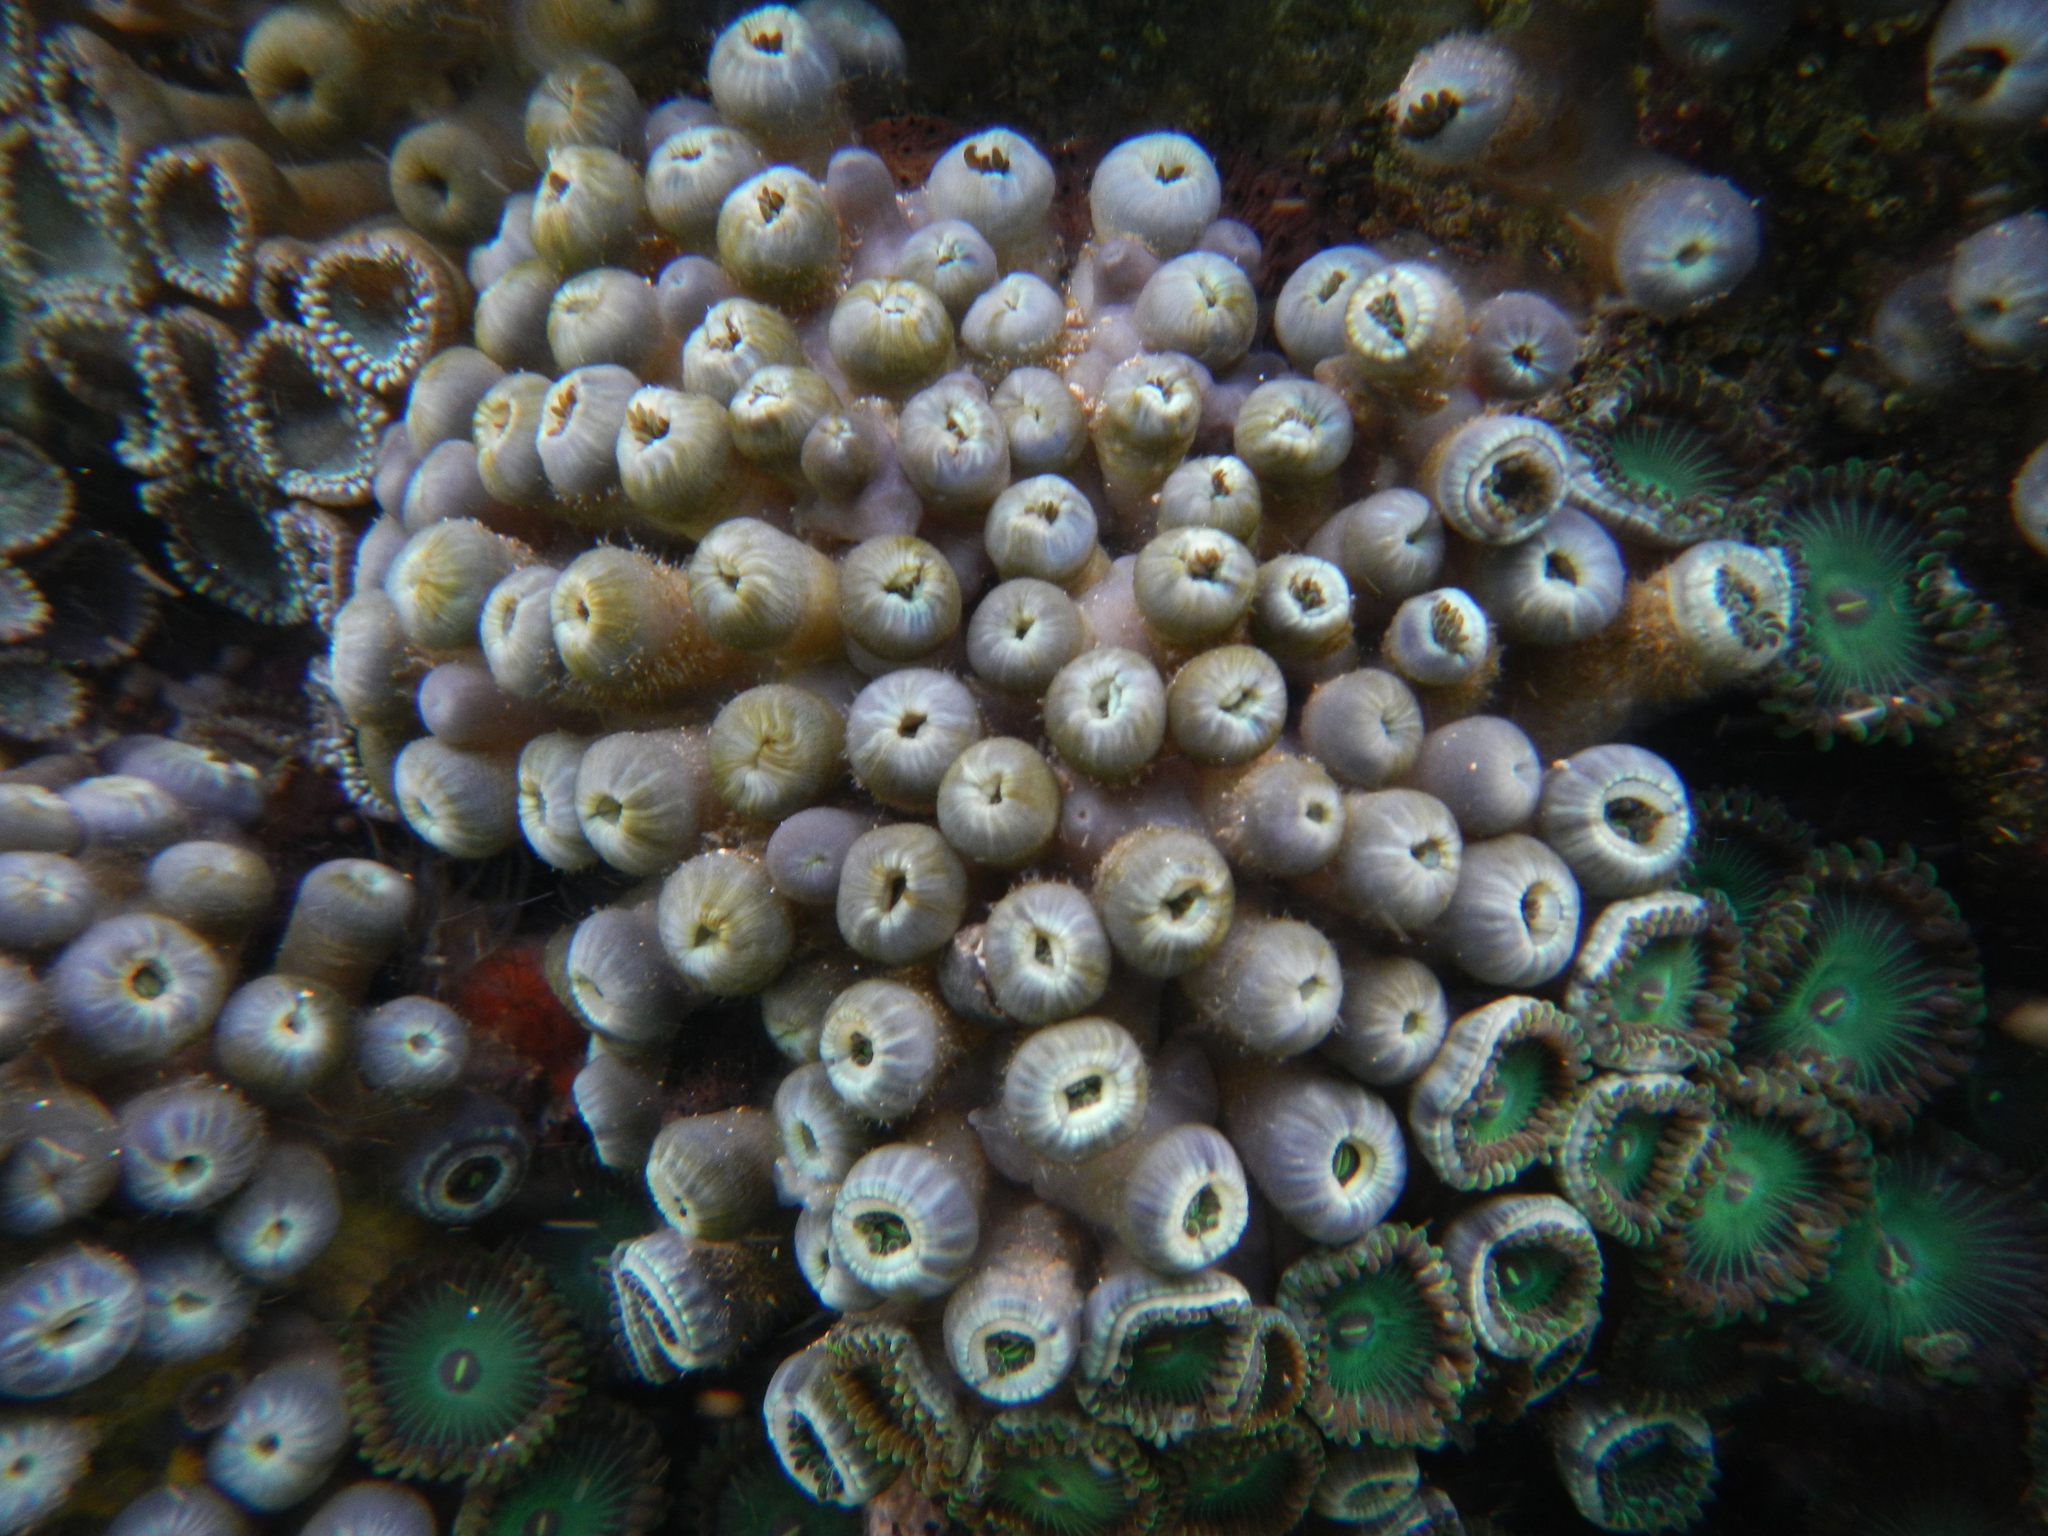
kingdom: Animalia
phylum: Cnidaria
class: Anthozoa
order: Zoantharia
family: Zoanthidae
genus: Zoanthus
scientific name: Zoanthus gigantus
